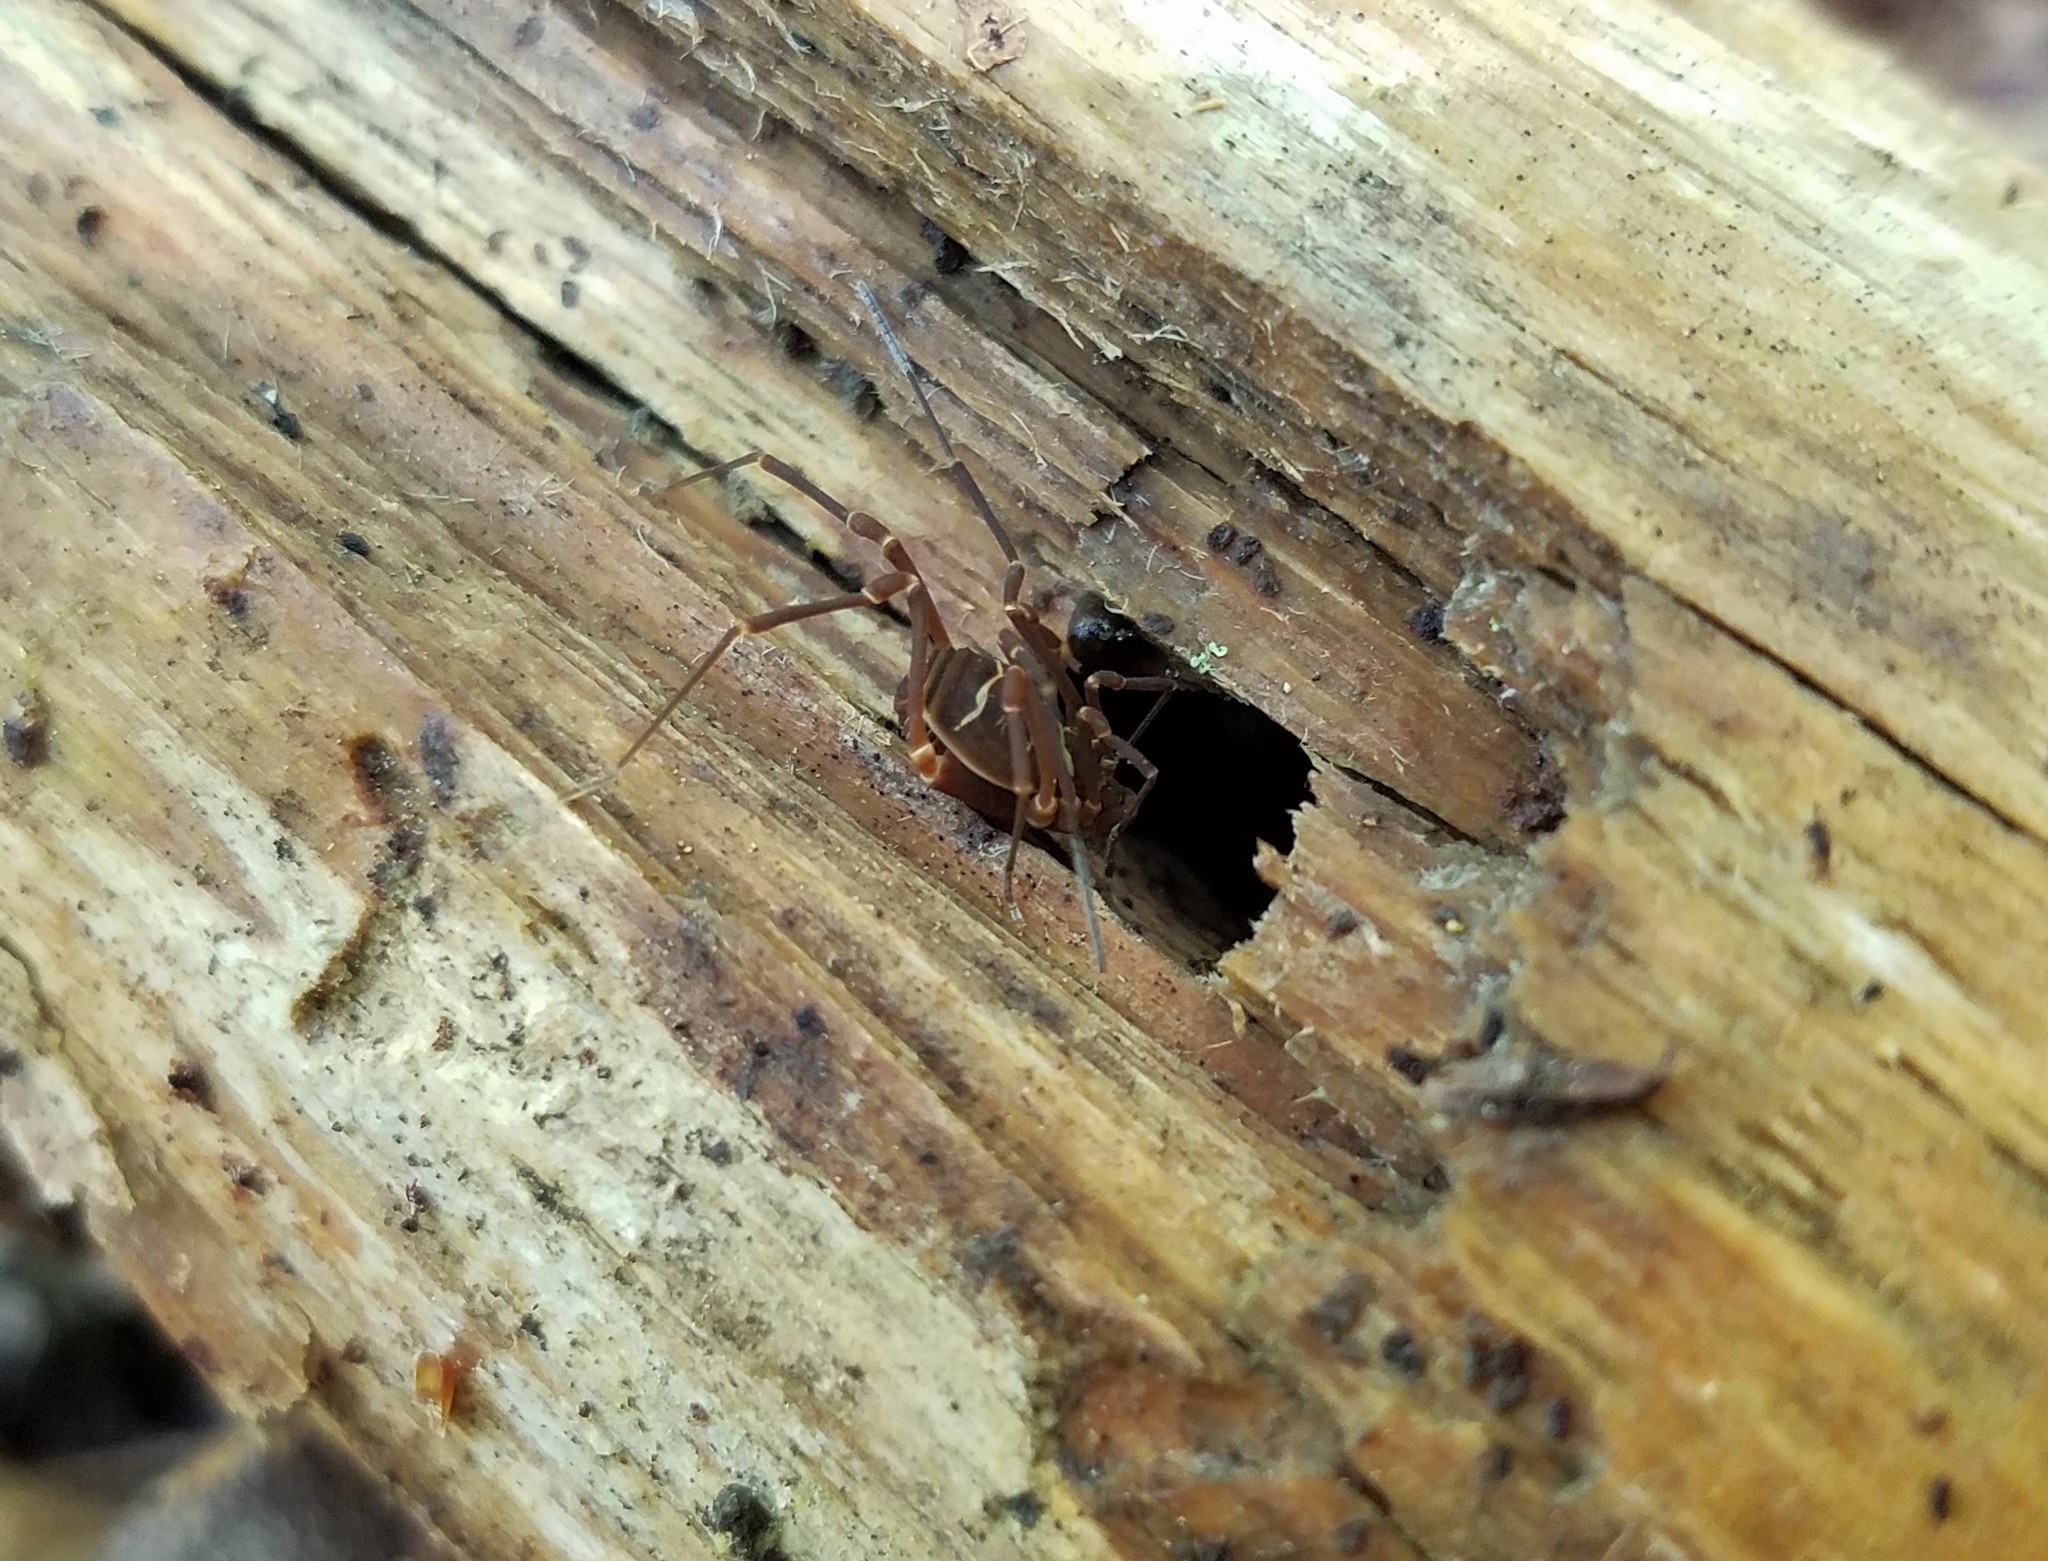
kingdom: Animalia
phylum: Arthropoda
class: Arachnida
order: Opiliones
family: Cosmetidae
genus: Libitioides
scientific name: Libitioides sayi
